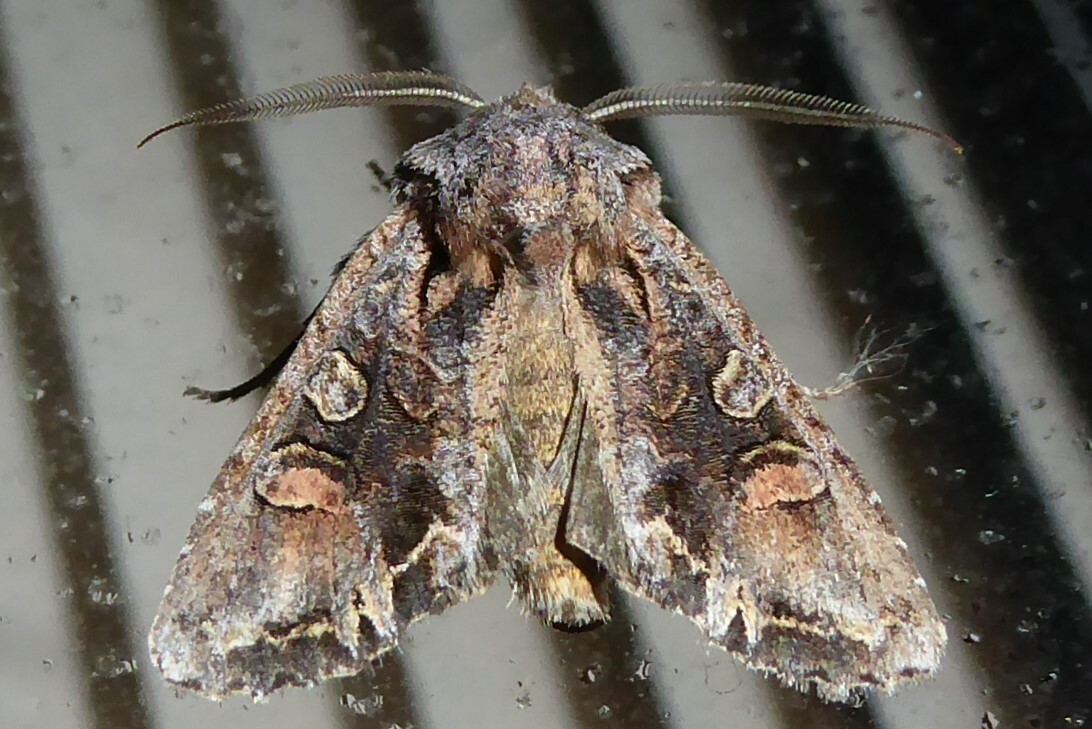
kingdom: Animalia
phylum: Arthropoda
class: Insecta
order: Lepidoptera
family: Noctuidae
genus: Ichneutica
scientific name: Ichneutica skelloni
